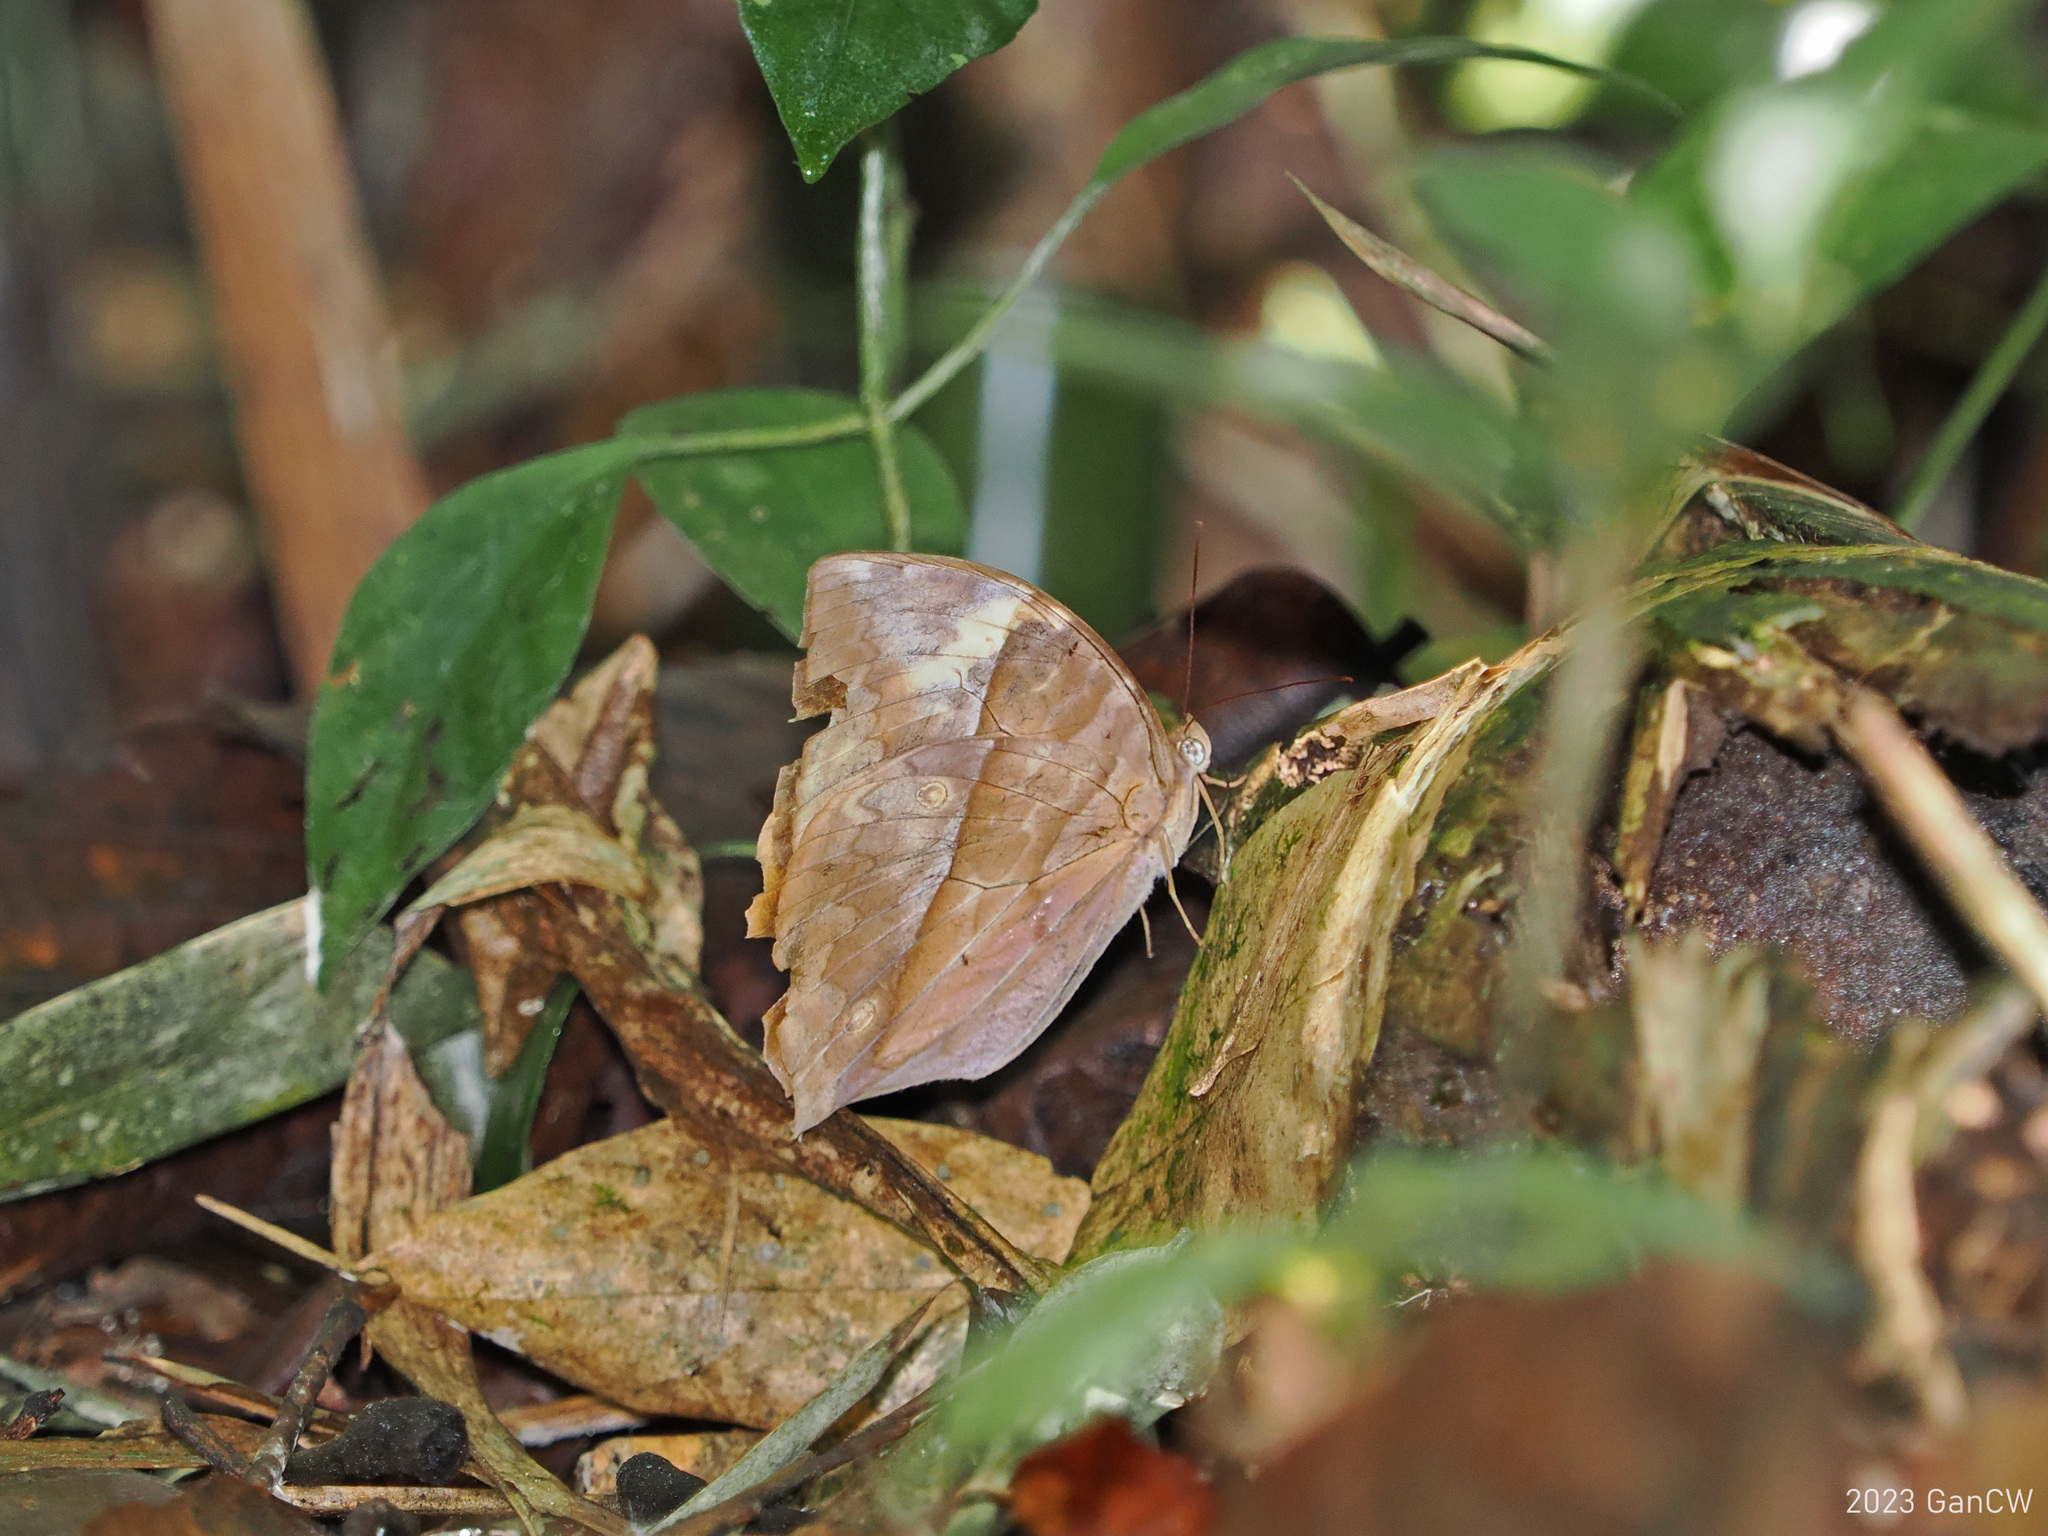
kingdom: Animalia
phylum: Arthropoda
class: Insecta
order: Lepidoptera
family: Nymphalidae
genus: Zeuxidia
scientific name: Zeuxidia doubledaii
